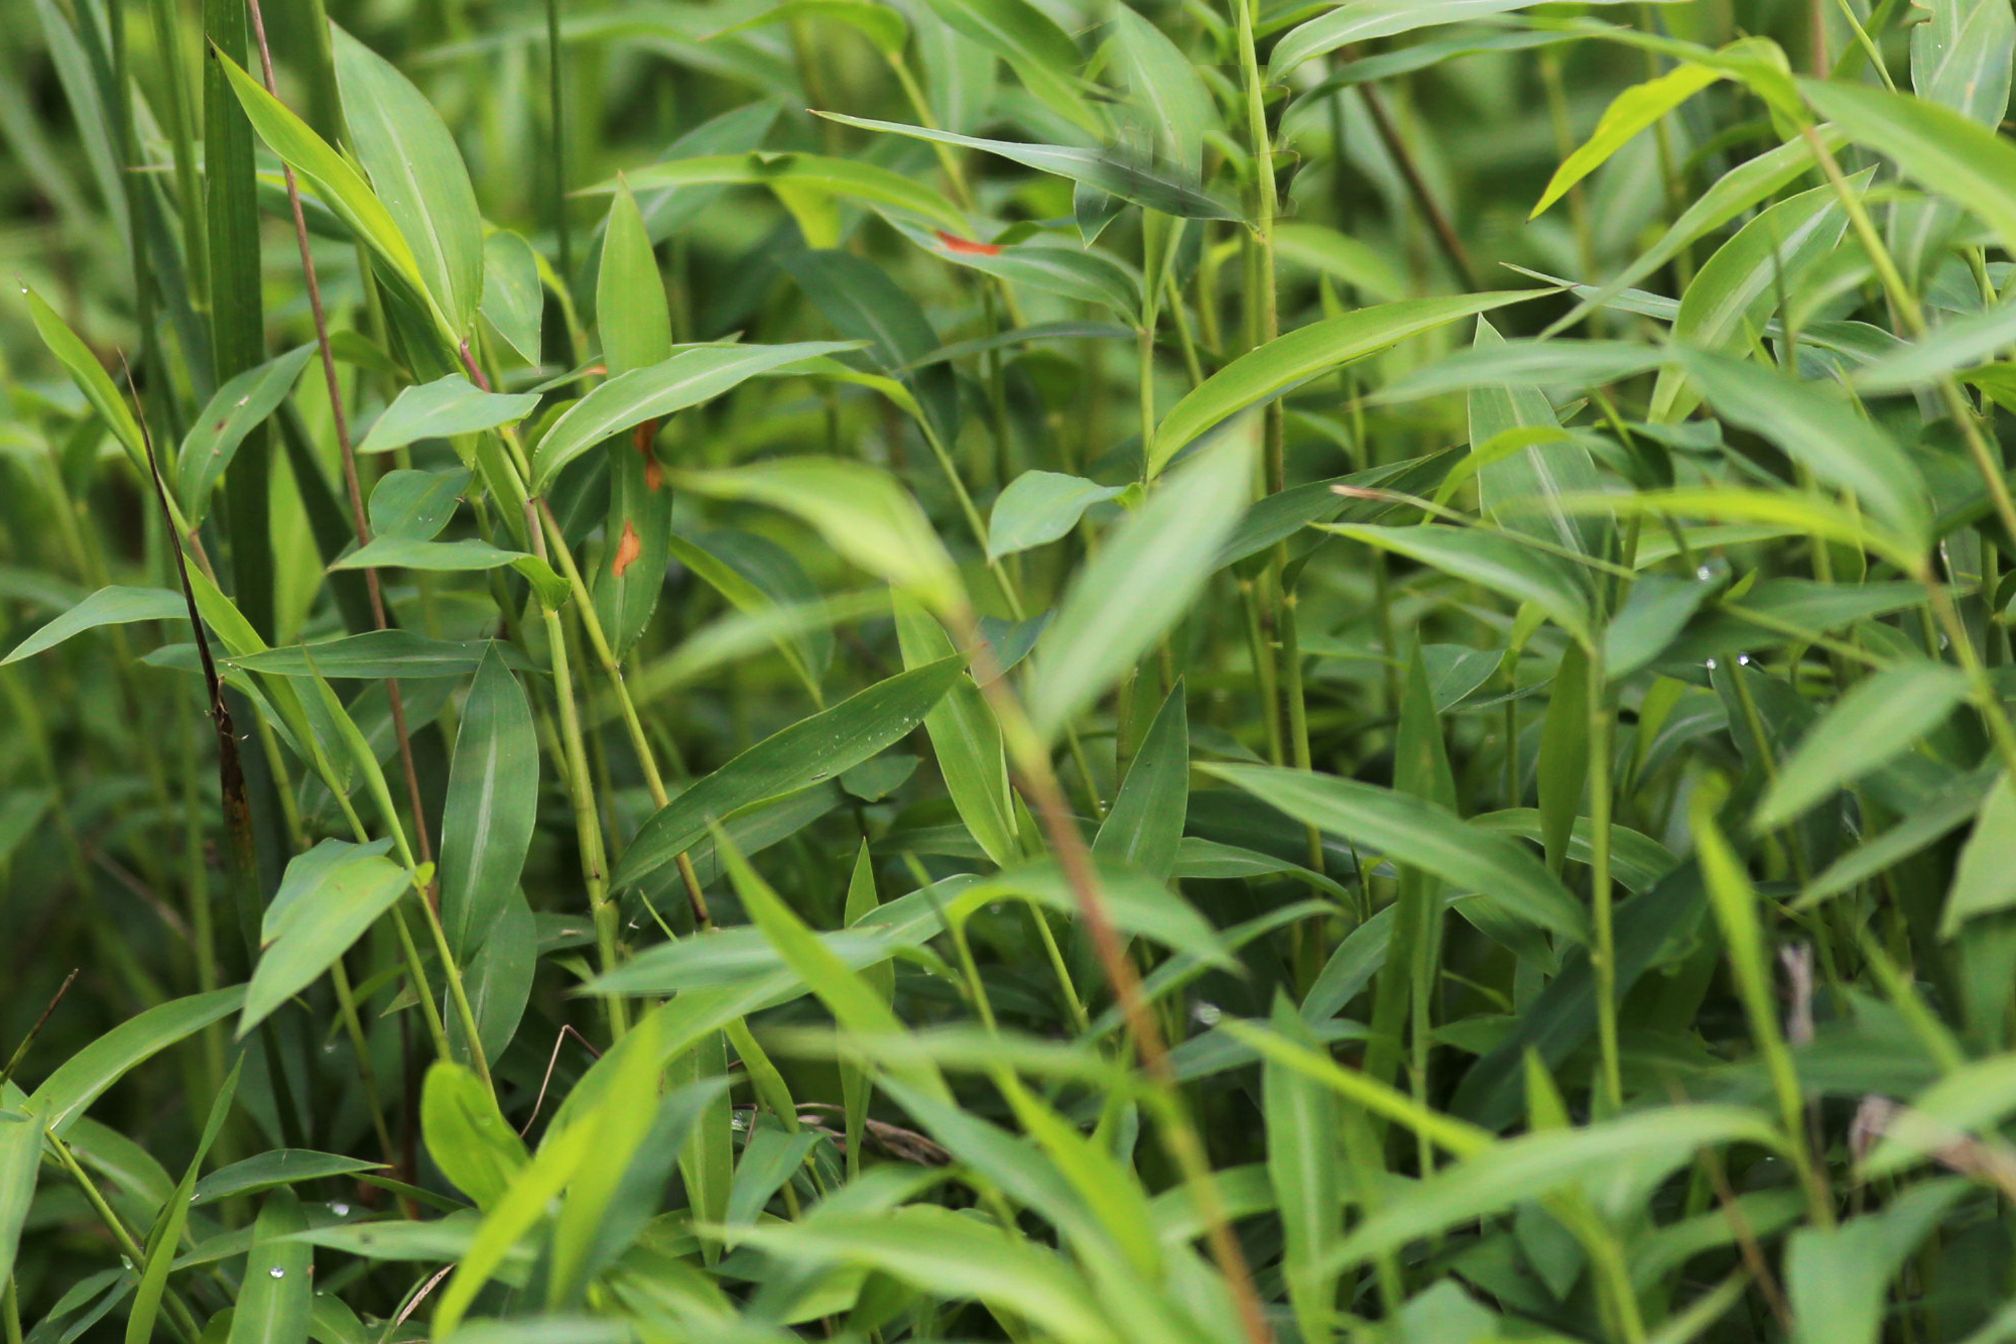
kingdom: Plantae
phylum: Tracheophyta
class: Liliopsida
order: Poales
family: Poaceae
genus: Microstegium
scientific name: Microstegium vimineum
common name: Japanese stiltgrass
